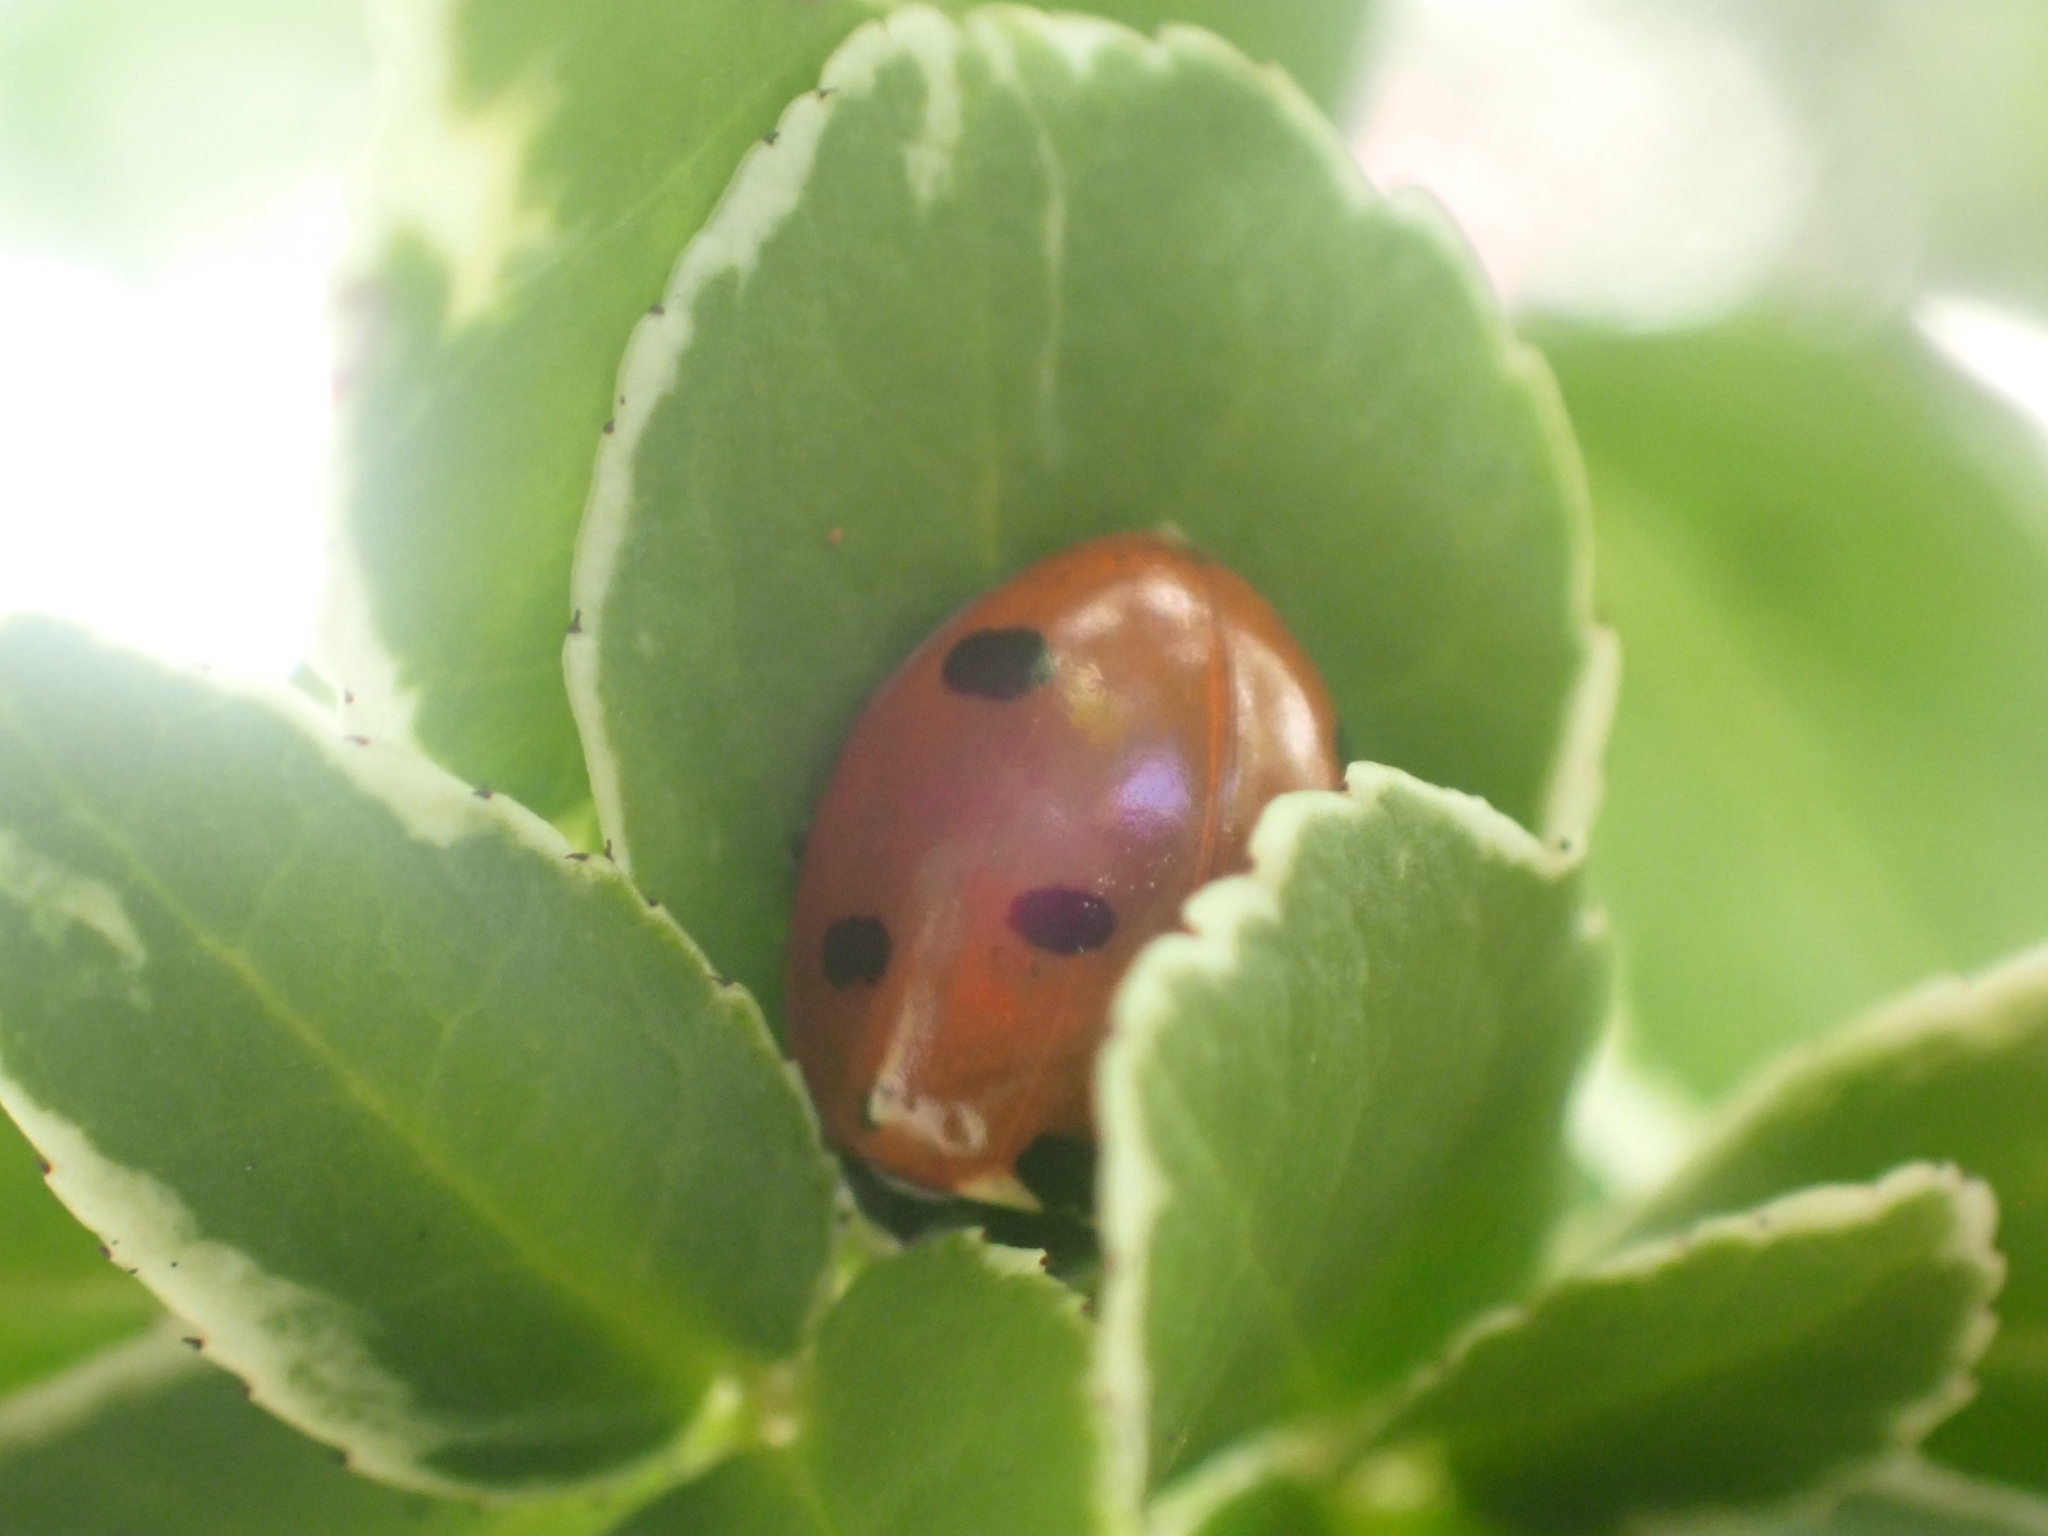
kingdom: Animalia
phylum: Arthropoda
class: Insecta
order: Coleoptera
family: Coccinellidae
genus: Coccinella
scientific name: Coccinella septempunctata
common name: Sevenspotted lady beetle
